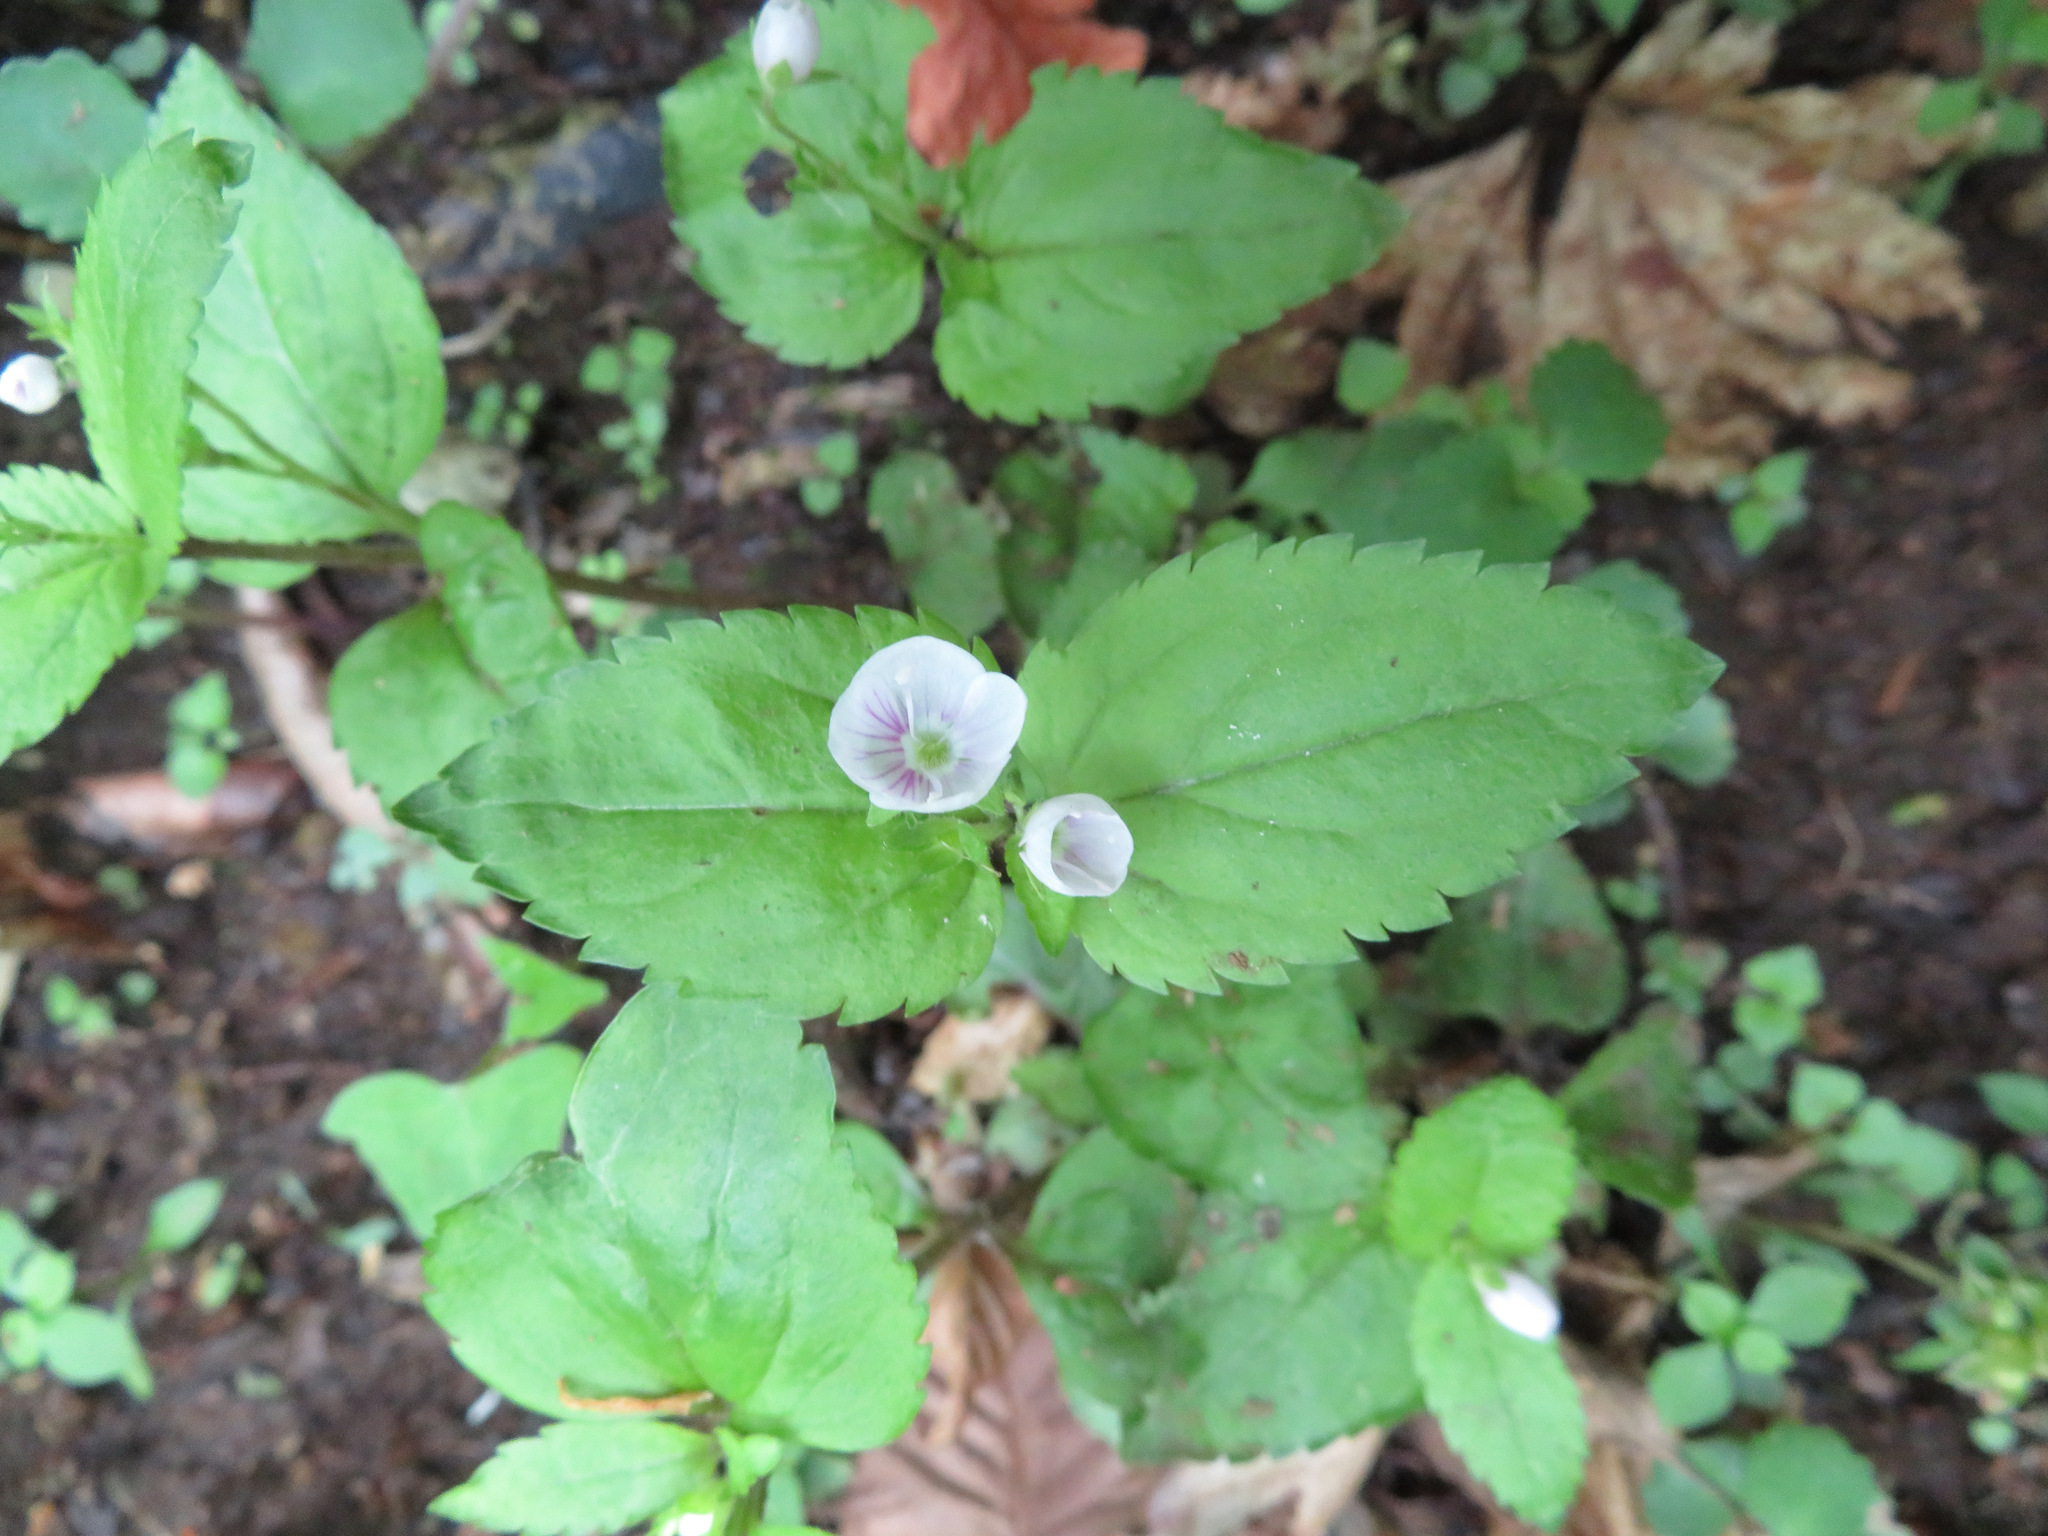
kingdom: Plantae
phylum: Tracheophyta
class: Magnoliopsida
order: Lamiales
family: Plantaginaceae
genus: Veronica
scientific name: Veronica miqueliana
